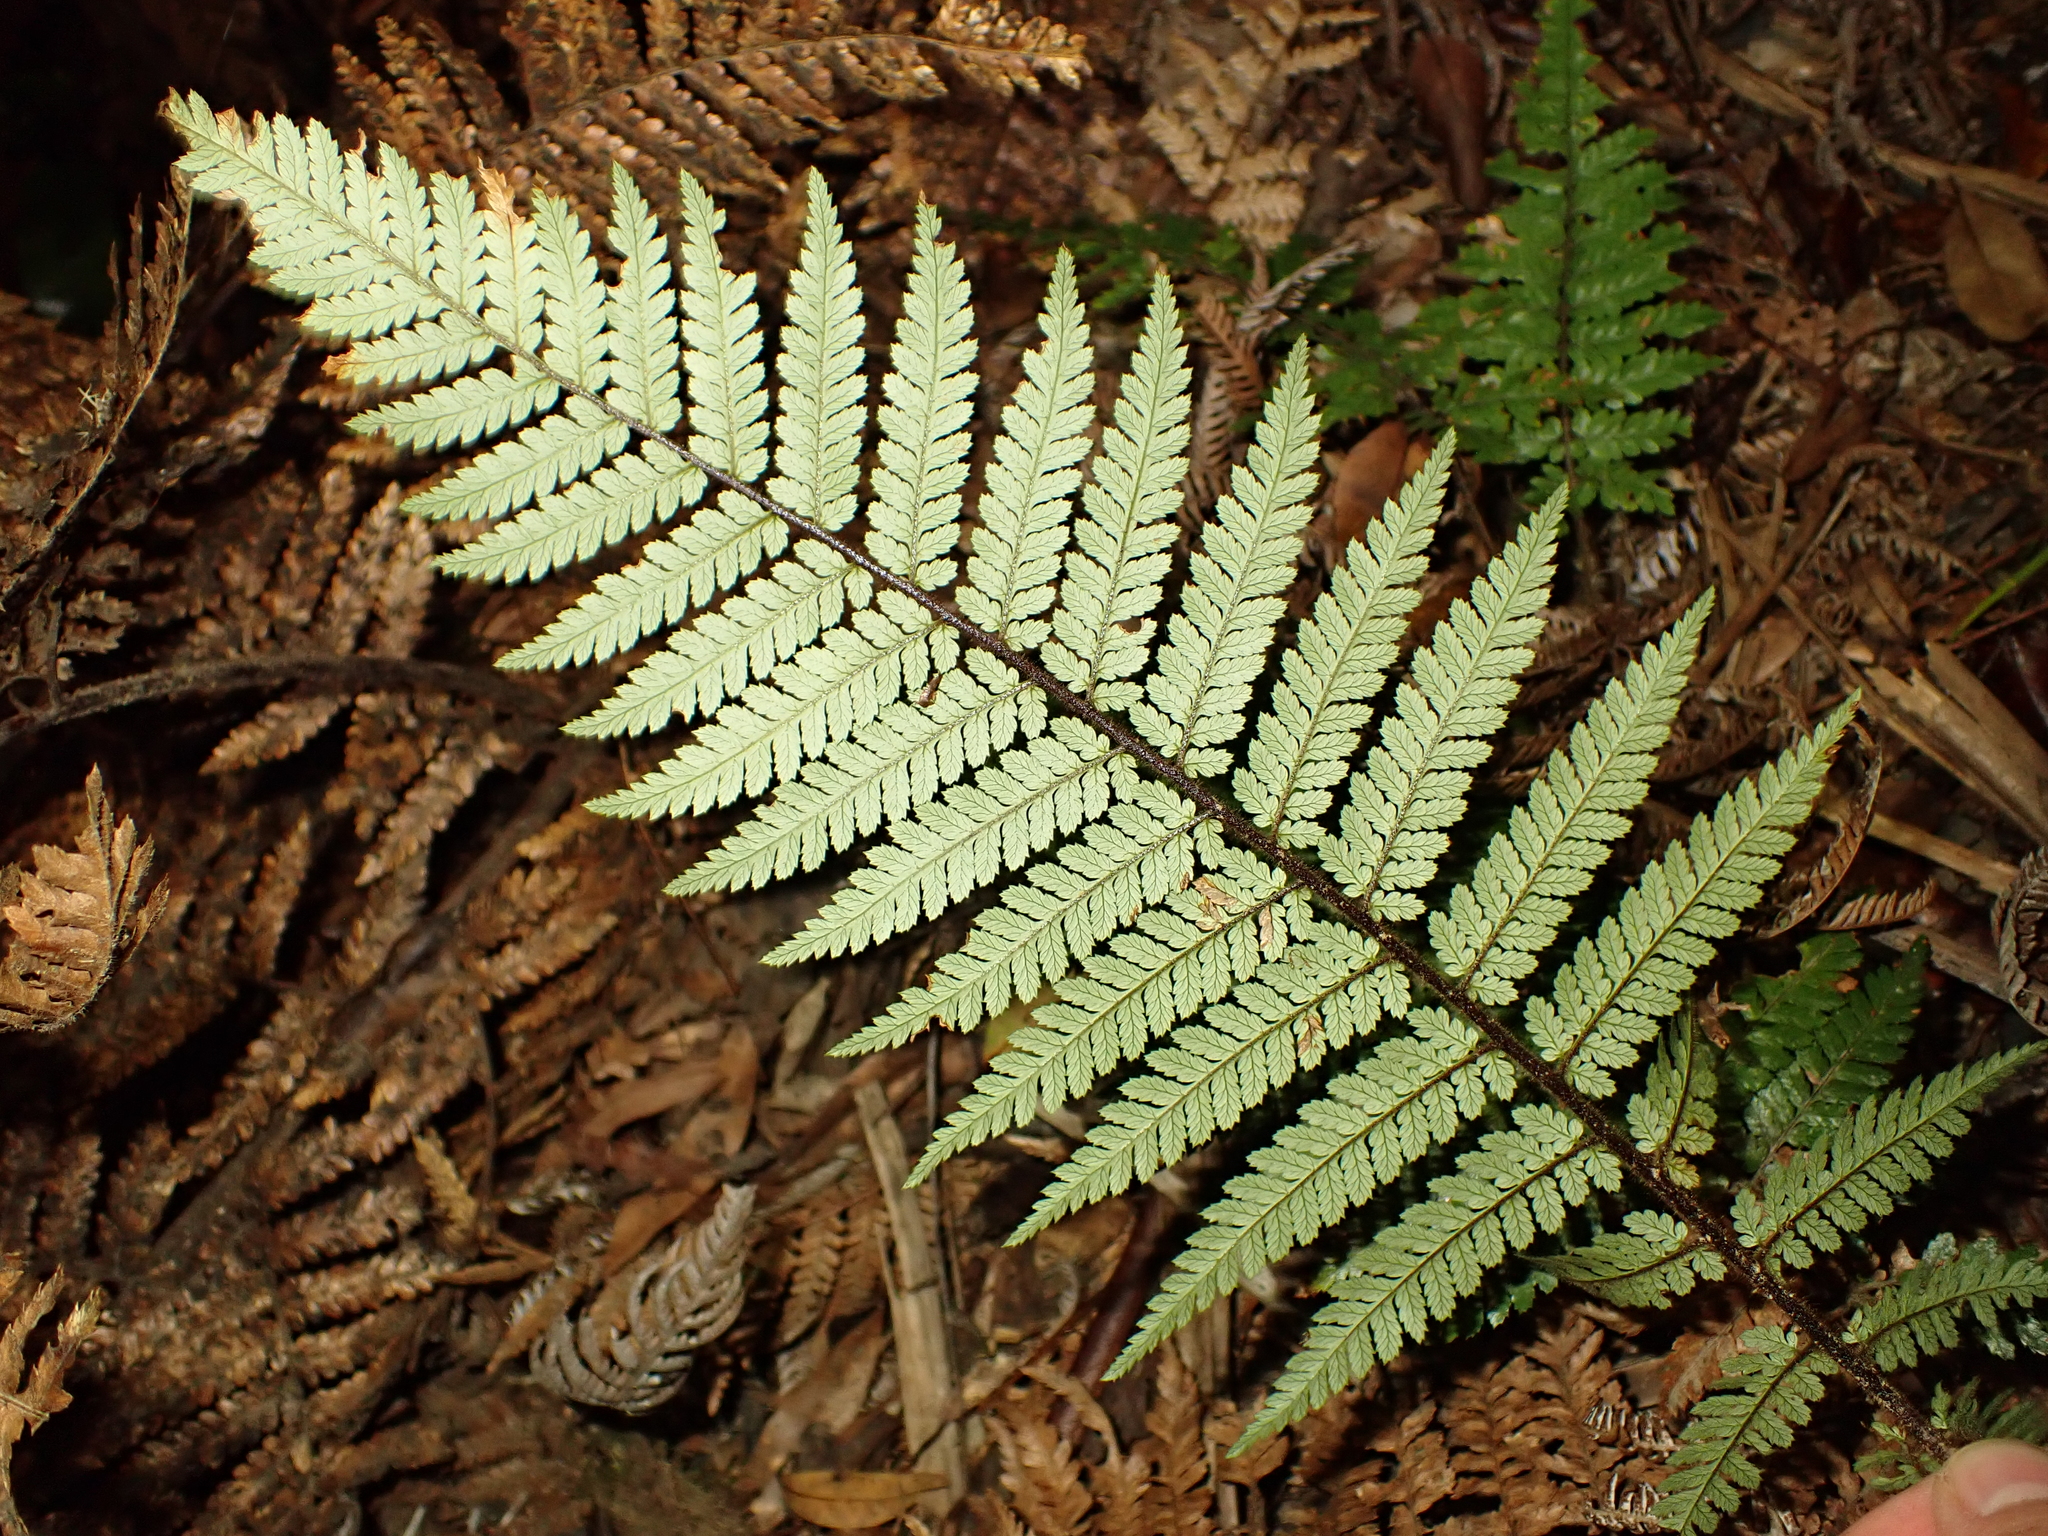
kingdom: Plantae
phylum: Tracheophyta
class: Polypodiopsida
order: Cyatheales
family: Dicksoniaceae
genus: Dicksonia
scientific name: Dicksonia squarrosa
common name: Hard treefern
